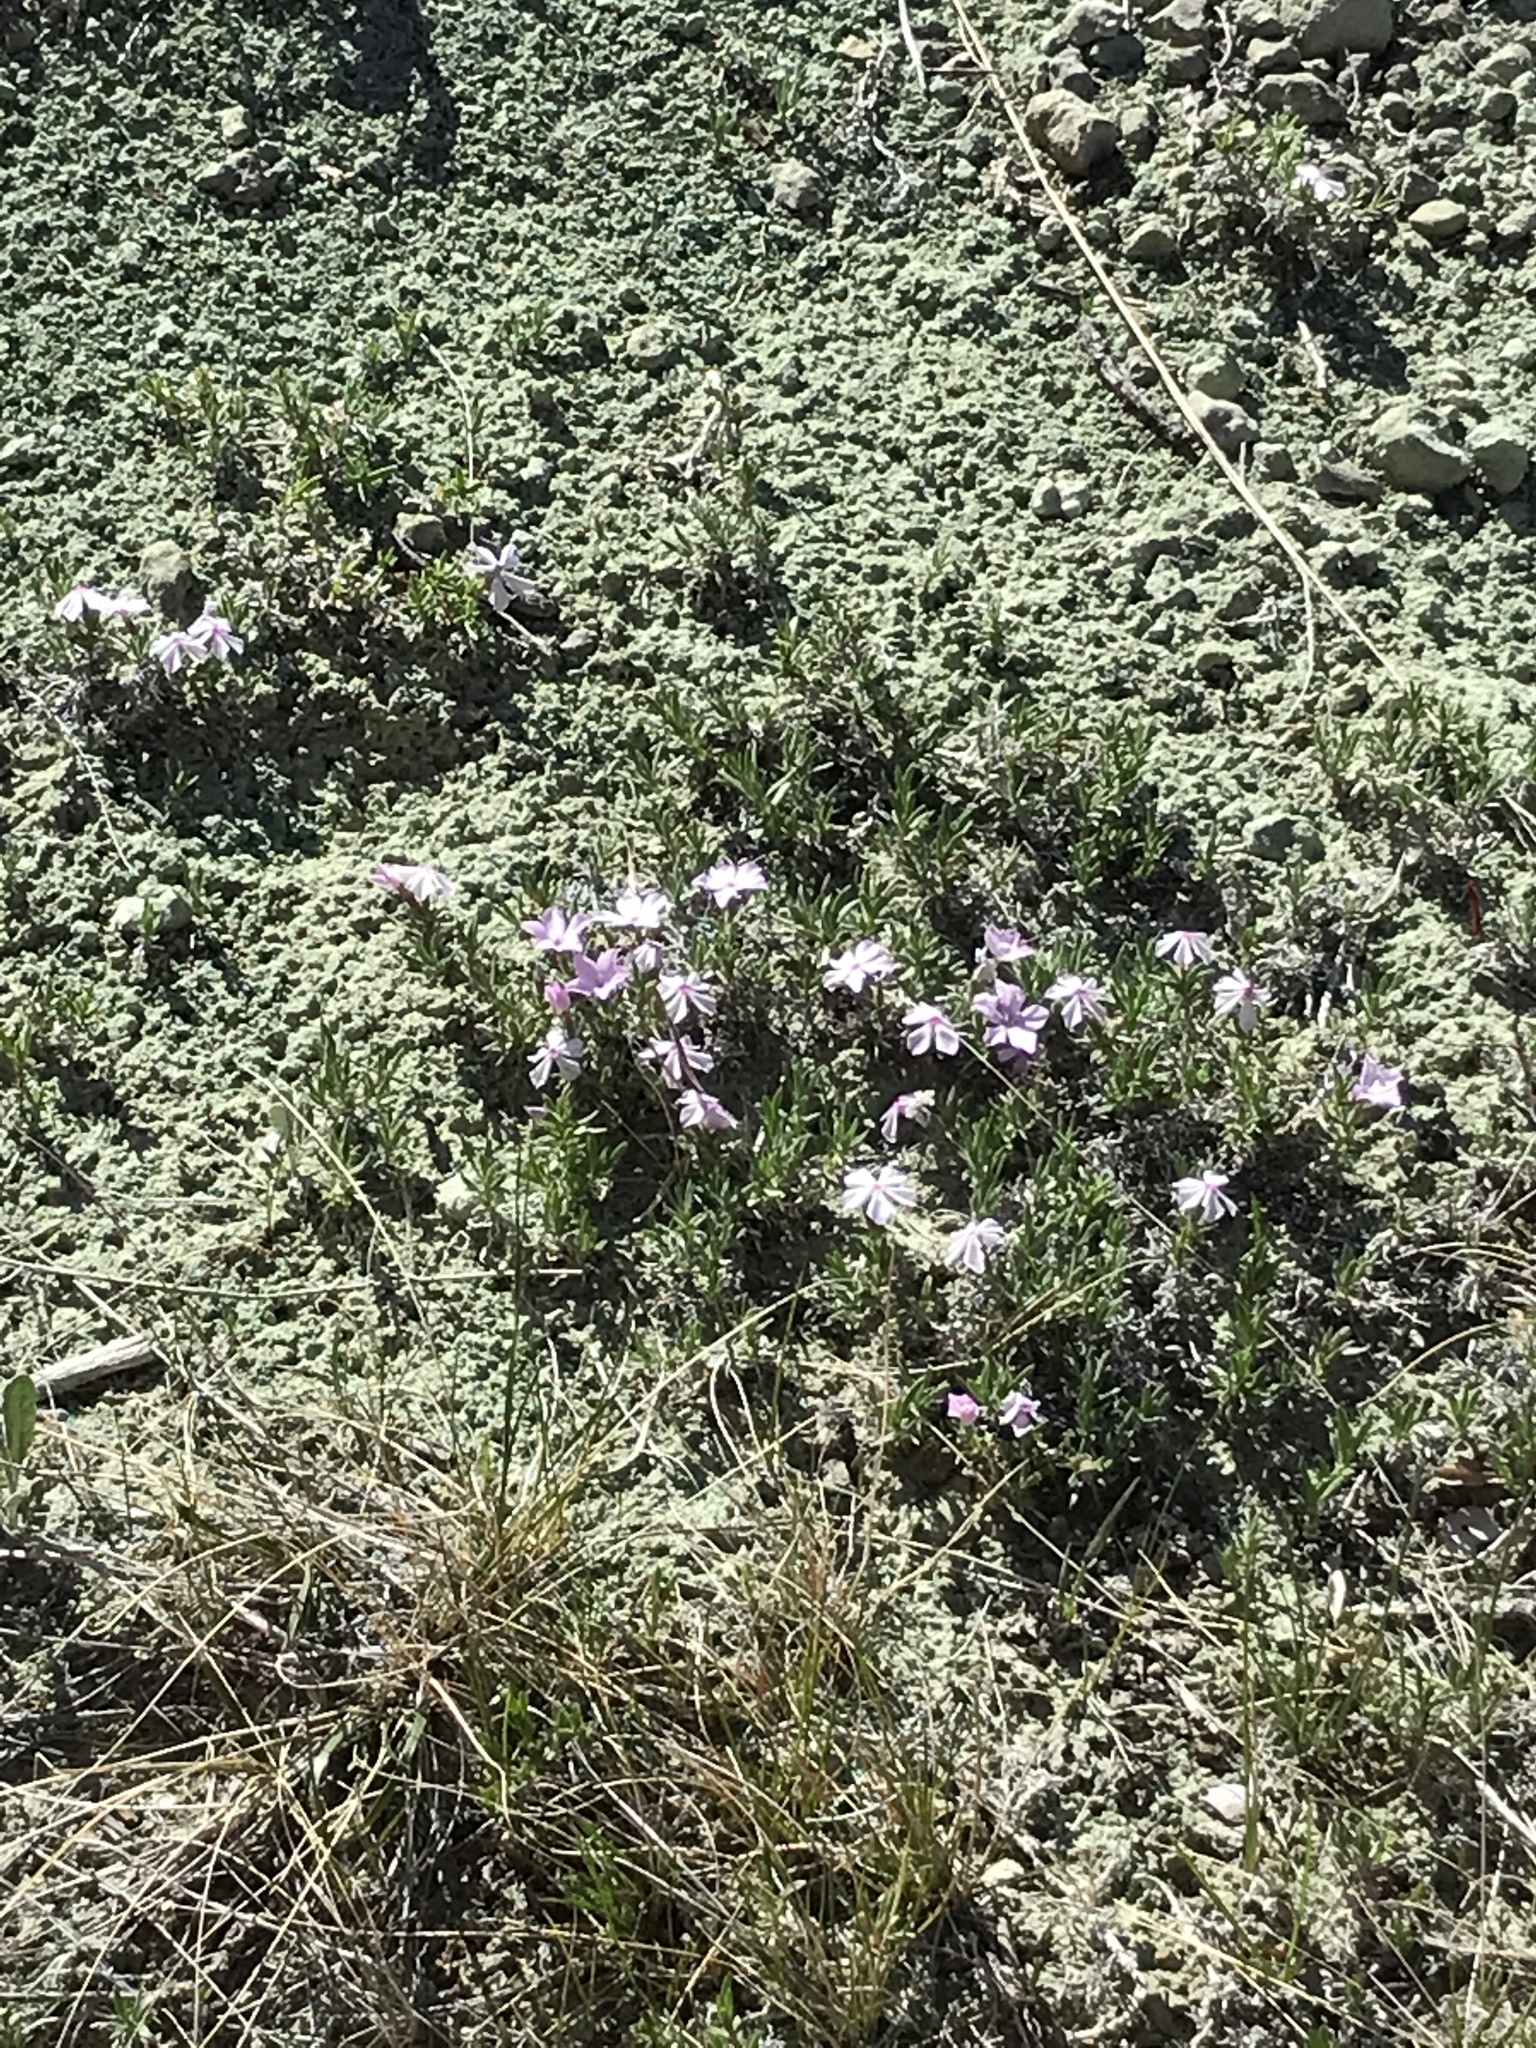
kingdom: Plantae
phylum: Tracheophyta
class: Magnoliopsida
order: Ericales
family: Polemoniaceae
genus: Phlox
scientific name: Phlox alyssifolia
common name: Blue phlox
